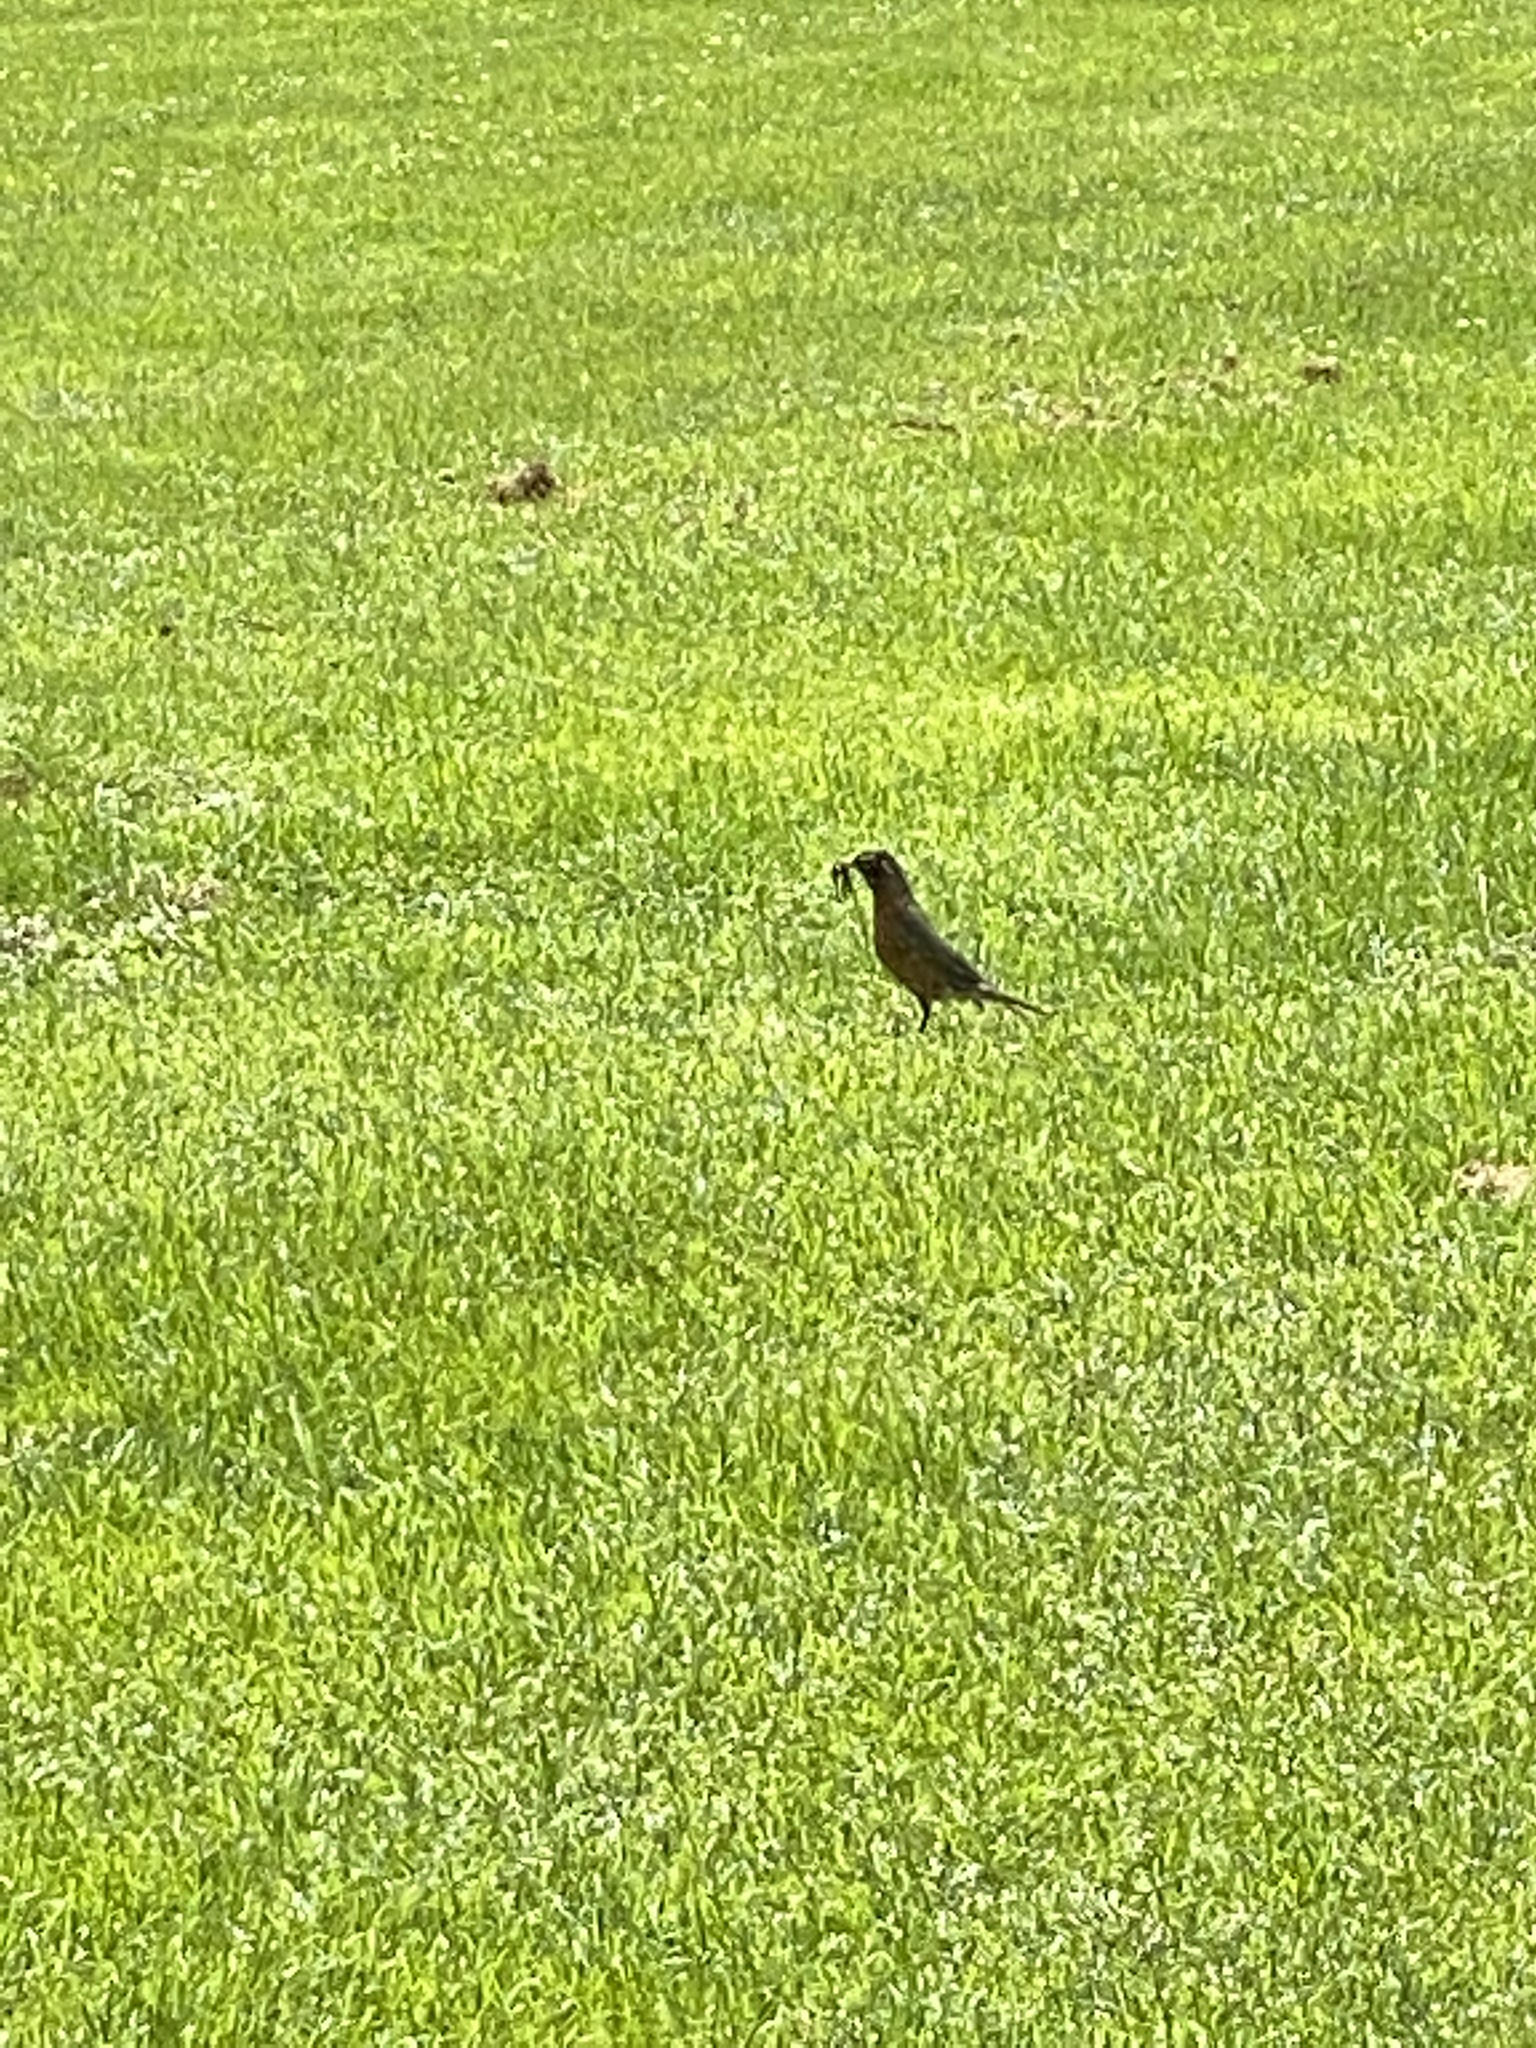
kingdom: Animalia
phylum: Chordata
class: Aves
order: Passeriformes
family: Turdidae
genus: Turdus
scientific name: Turdus migratorius
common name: American robin
